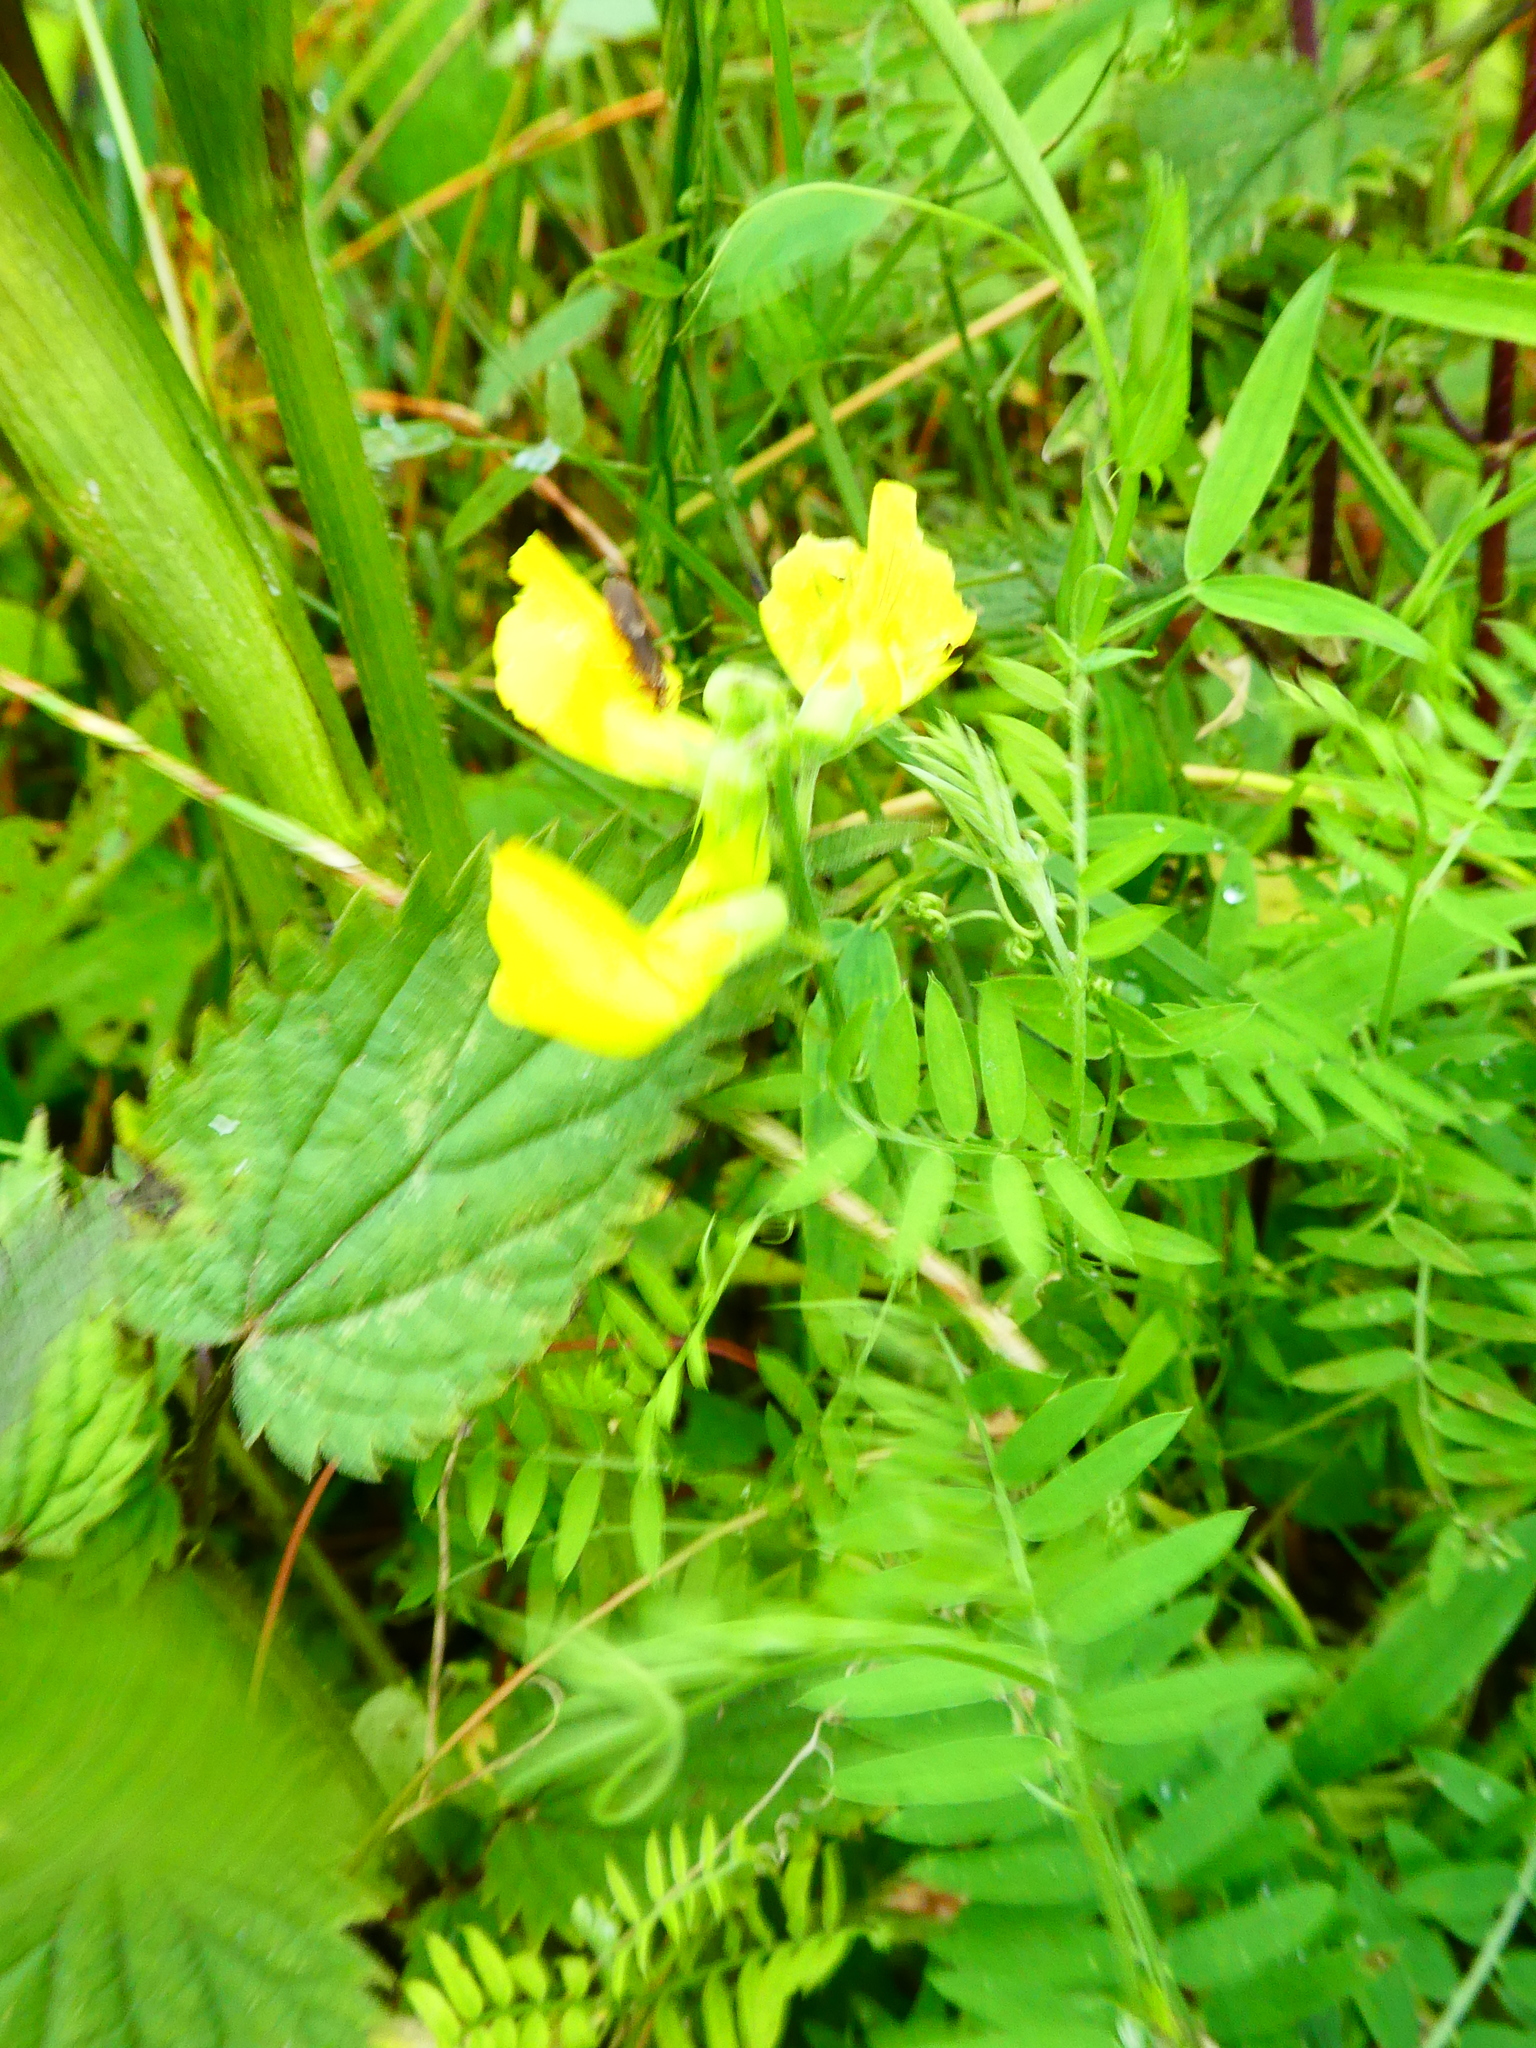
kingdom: Plantae
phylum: Tracheophyta
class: Magnoliopsida
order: Fabales
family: Fabaceae
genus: Lathyrus
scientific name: Lathyrus pratensis
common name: Meadow vetchling
